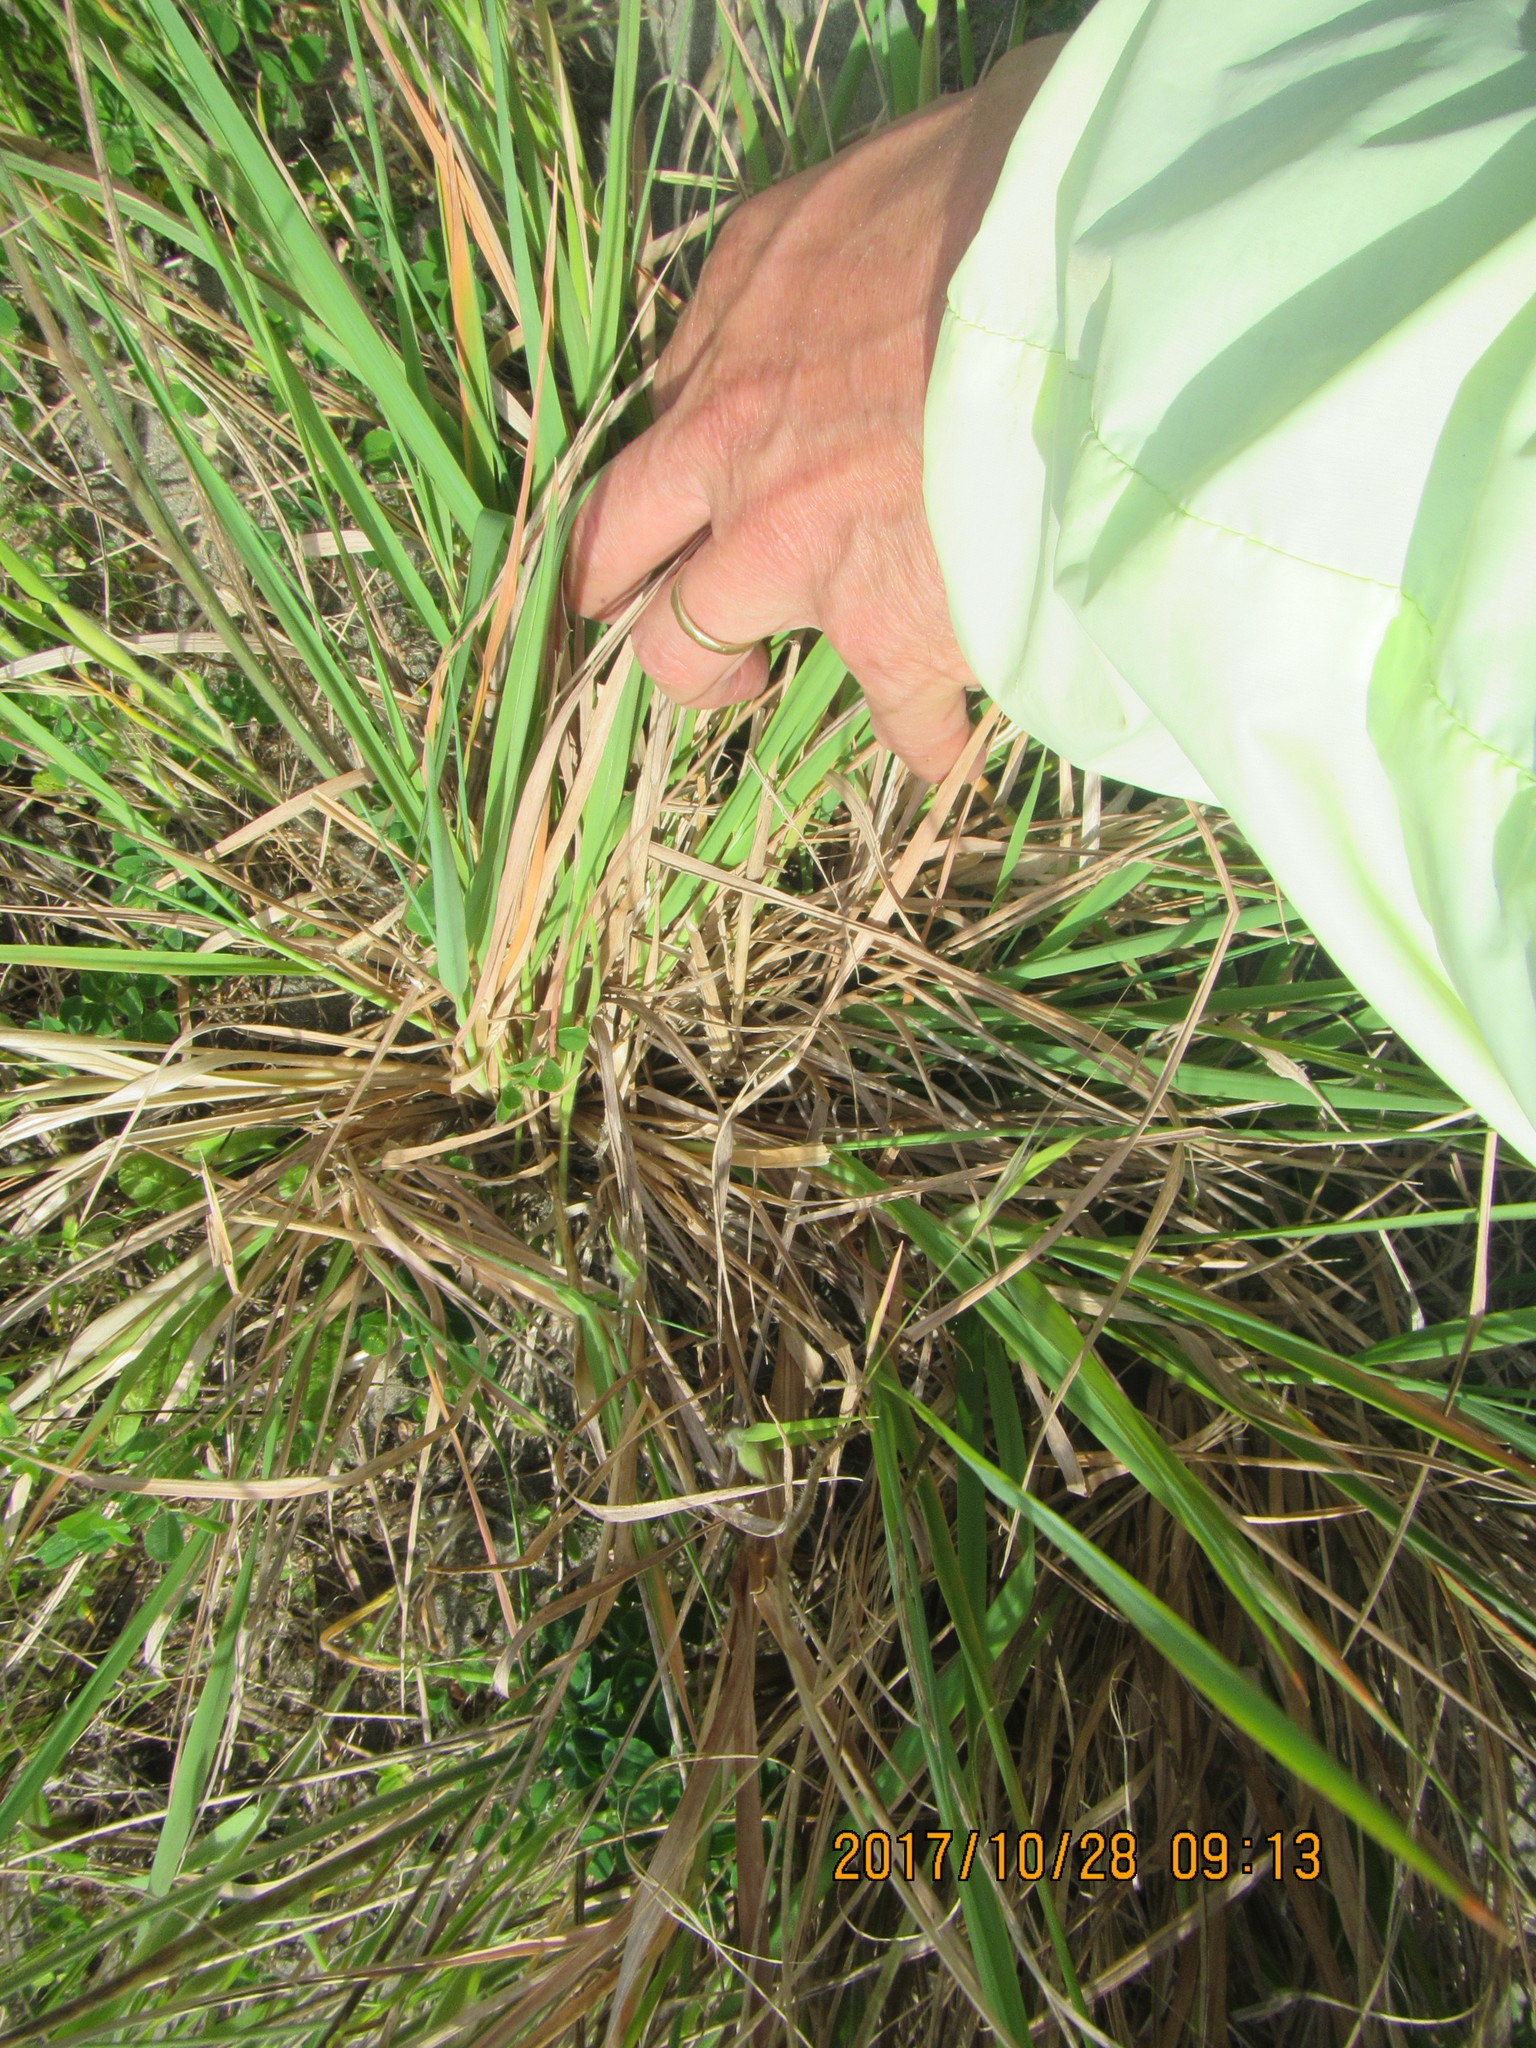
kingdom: Plantae
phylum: Tracheophyta
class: Liliopsida
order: Poales
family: Poaceae
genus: Lachnagrostis
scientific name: Lachnagrostis billardierei
